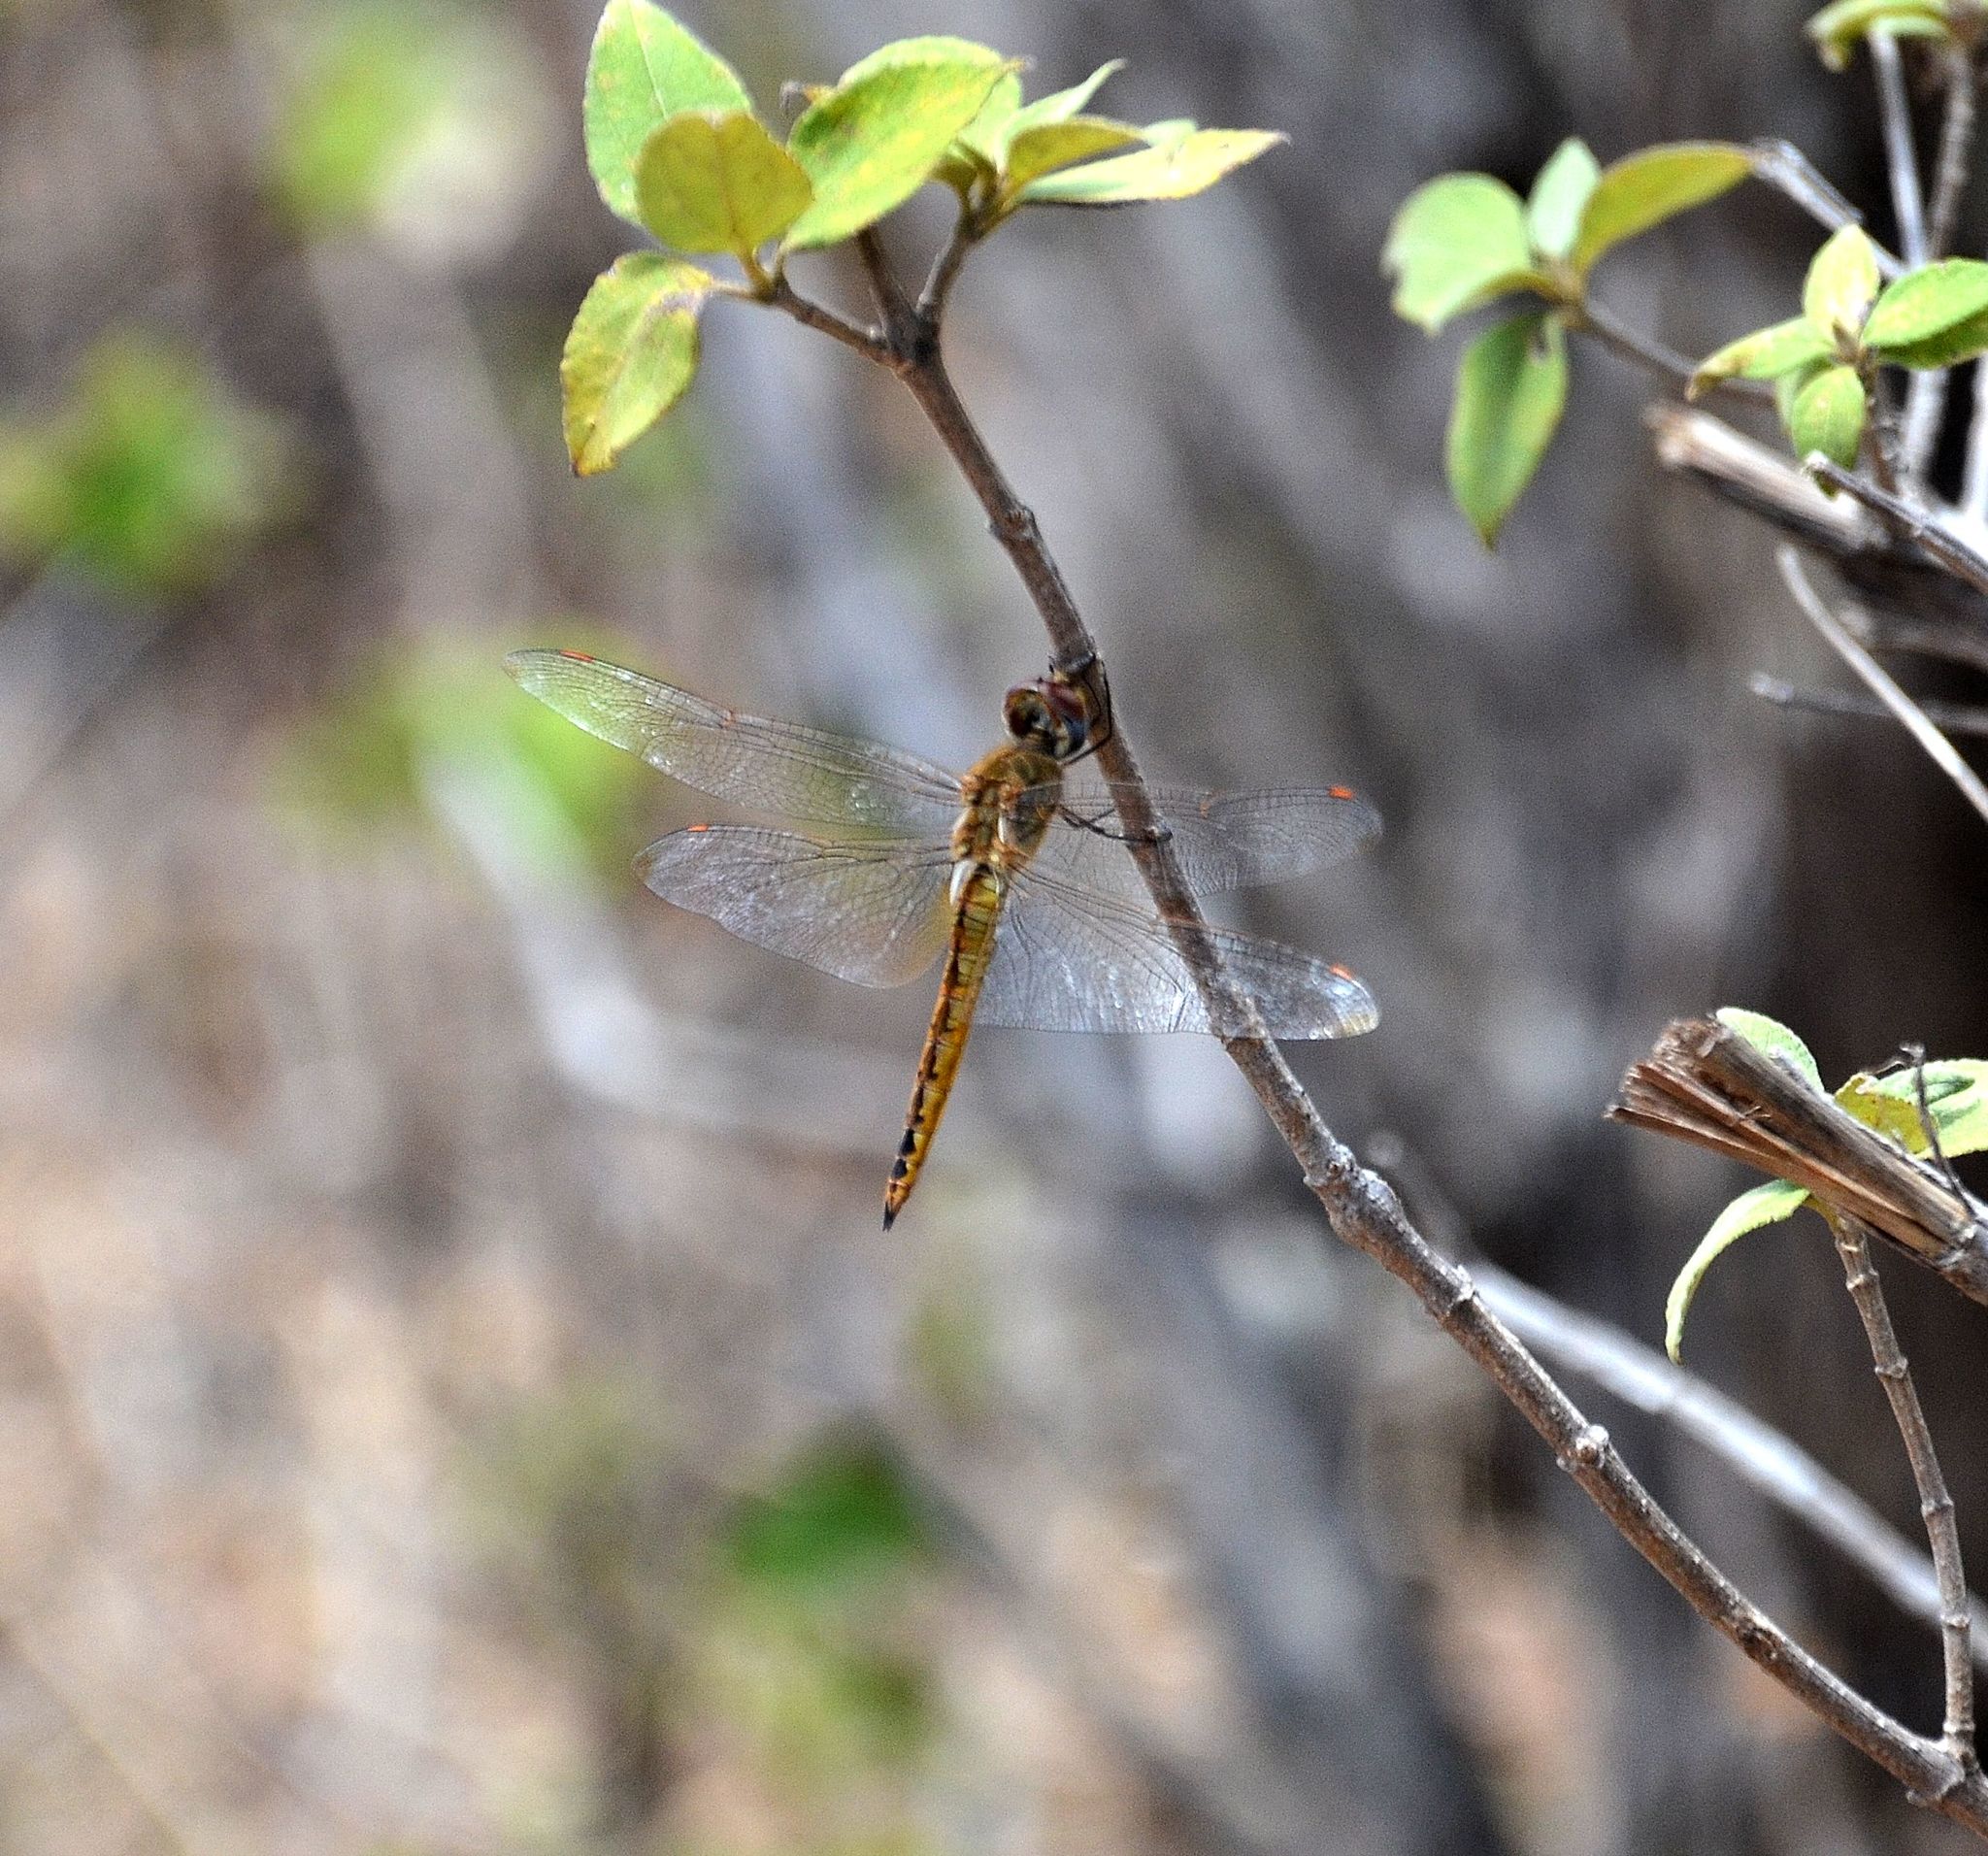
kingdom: Animalia
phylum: Arthropoda
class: Insecta
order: Odonata
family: Libellulidae
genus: Pantala
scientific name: Pantala flavescens
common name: Wandering glider
